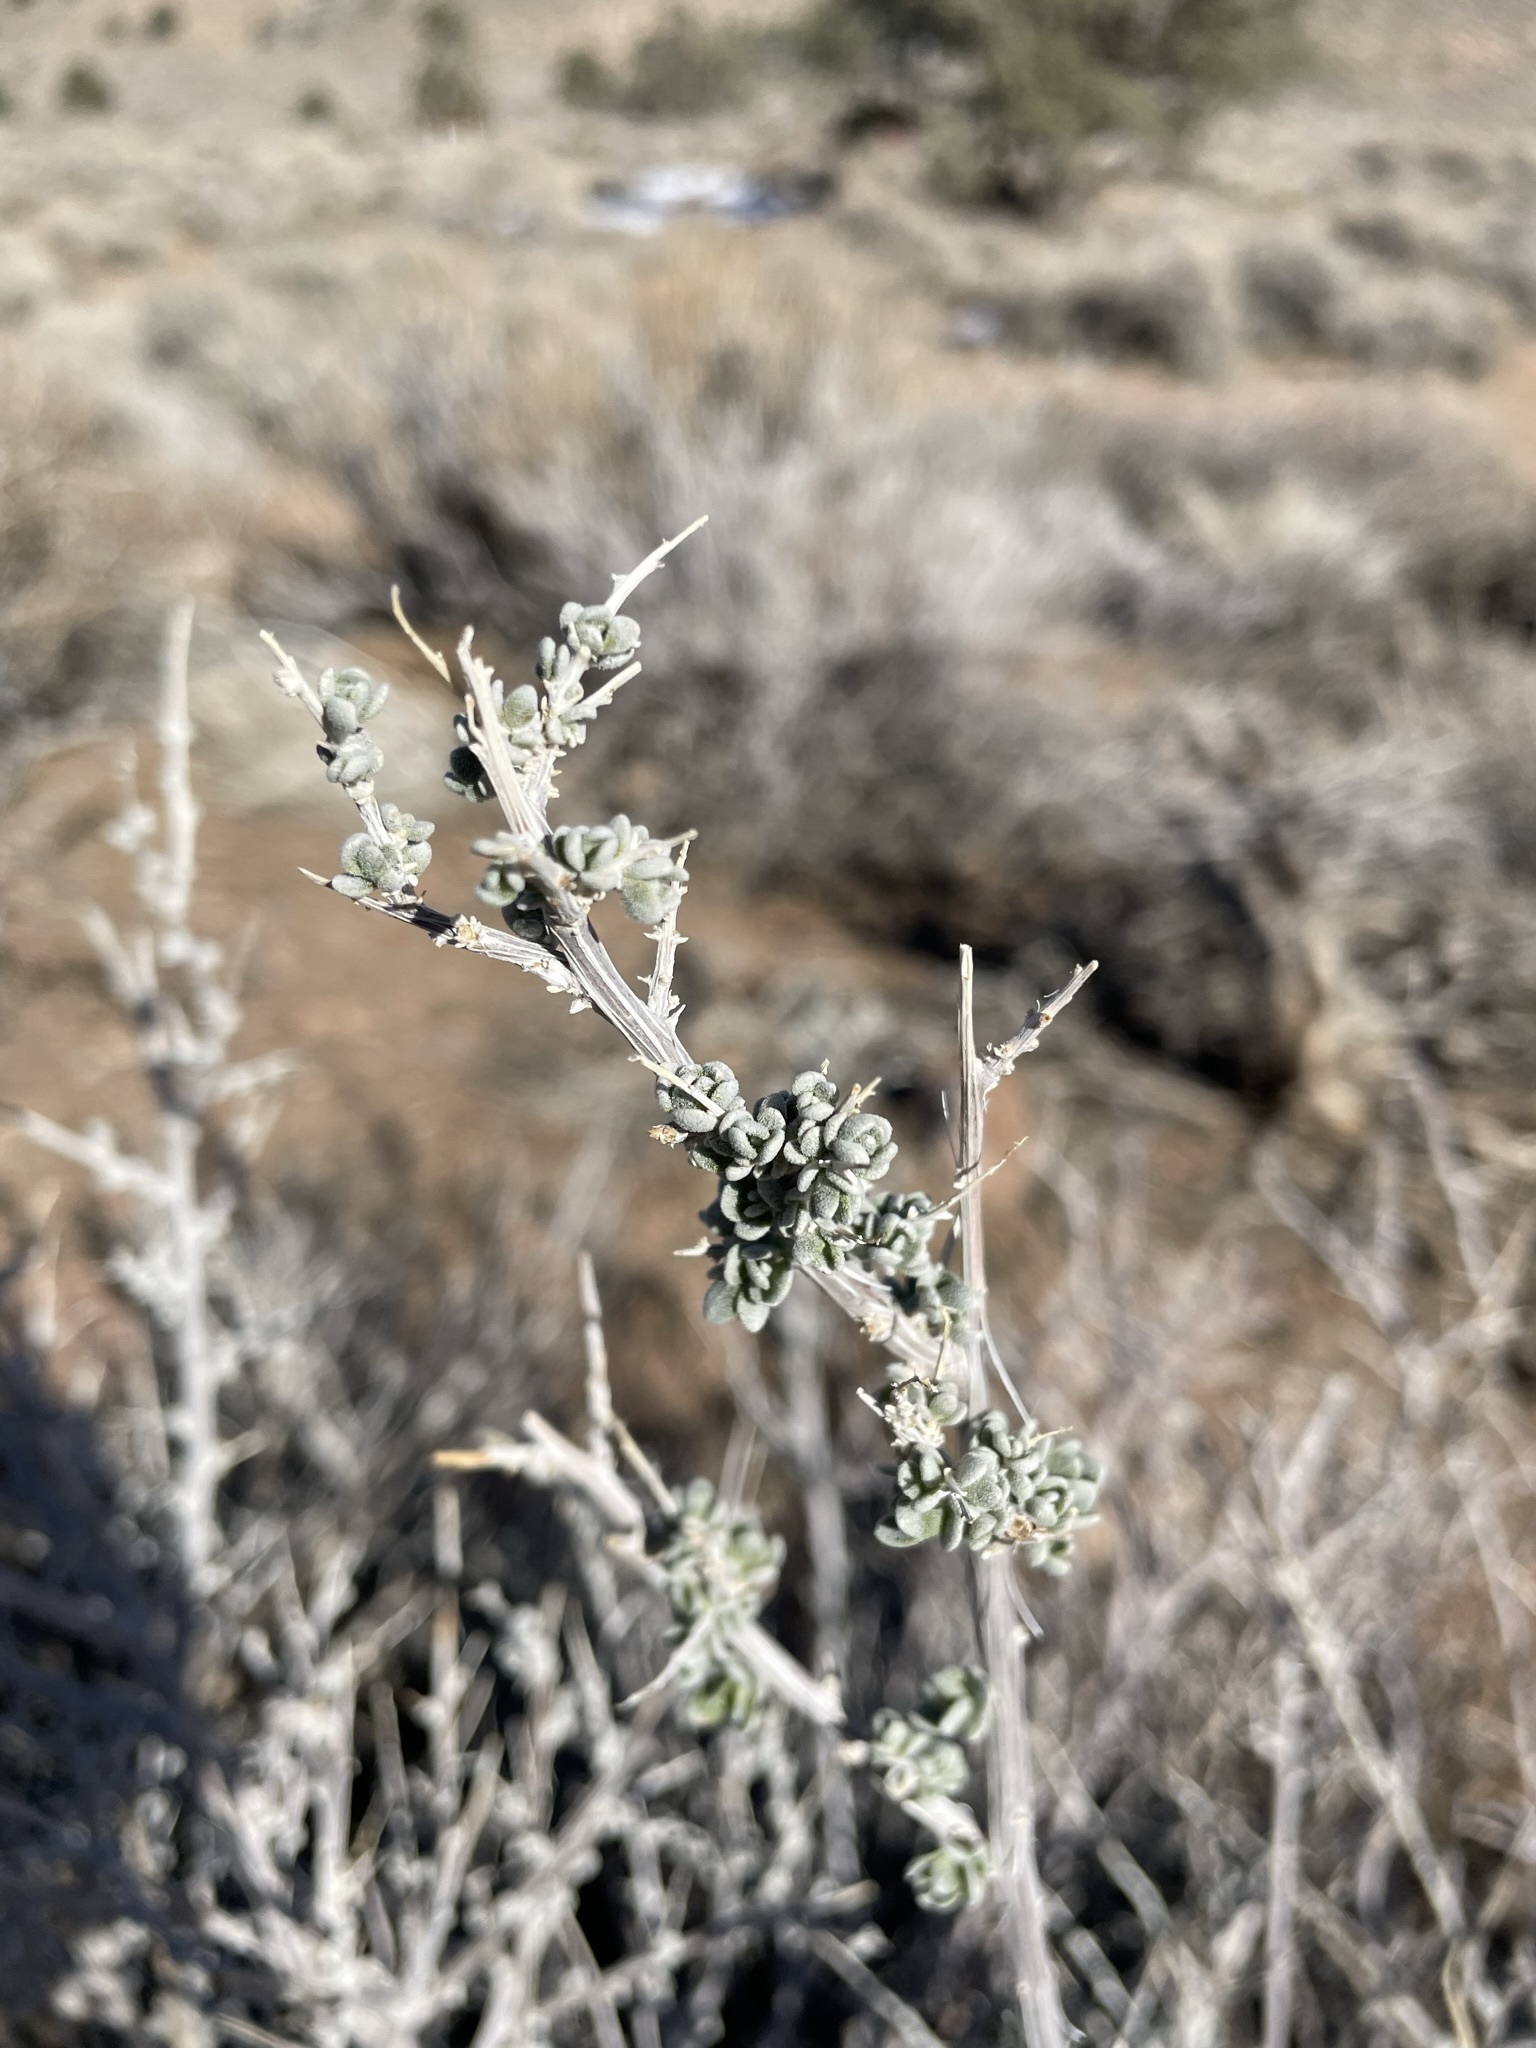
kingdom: Plantae
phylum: Tracheophyta
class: Magnoliopsida
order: Caryophyllales
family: Amaranthaceae
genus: Grayia
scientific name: Grayia spinosa
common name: Spiny hopsage
